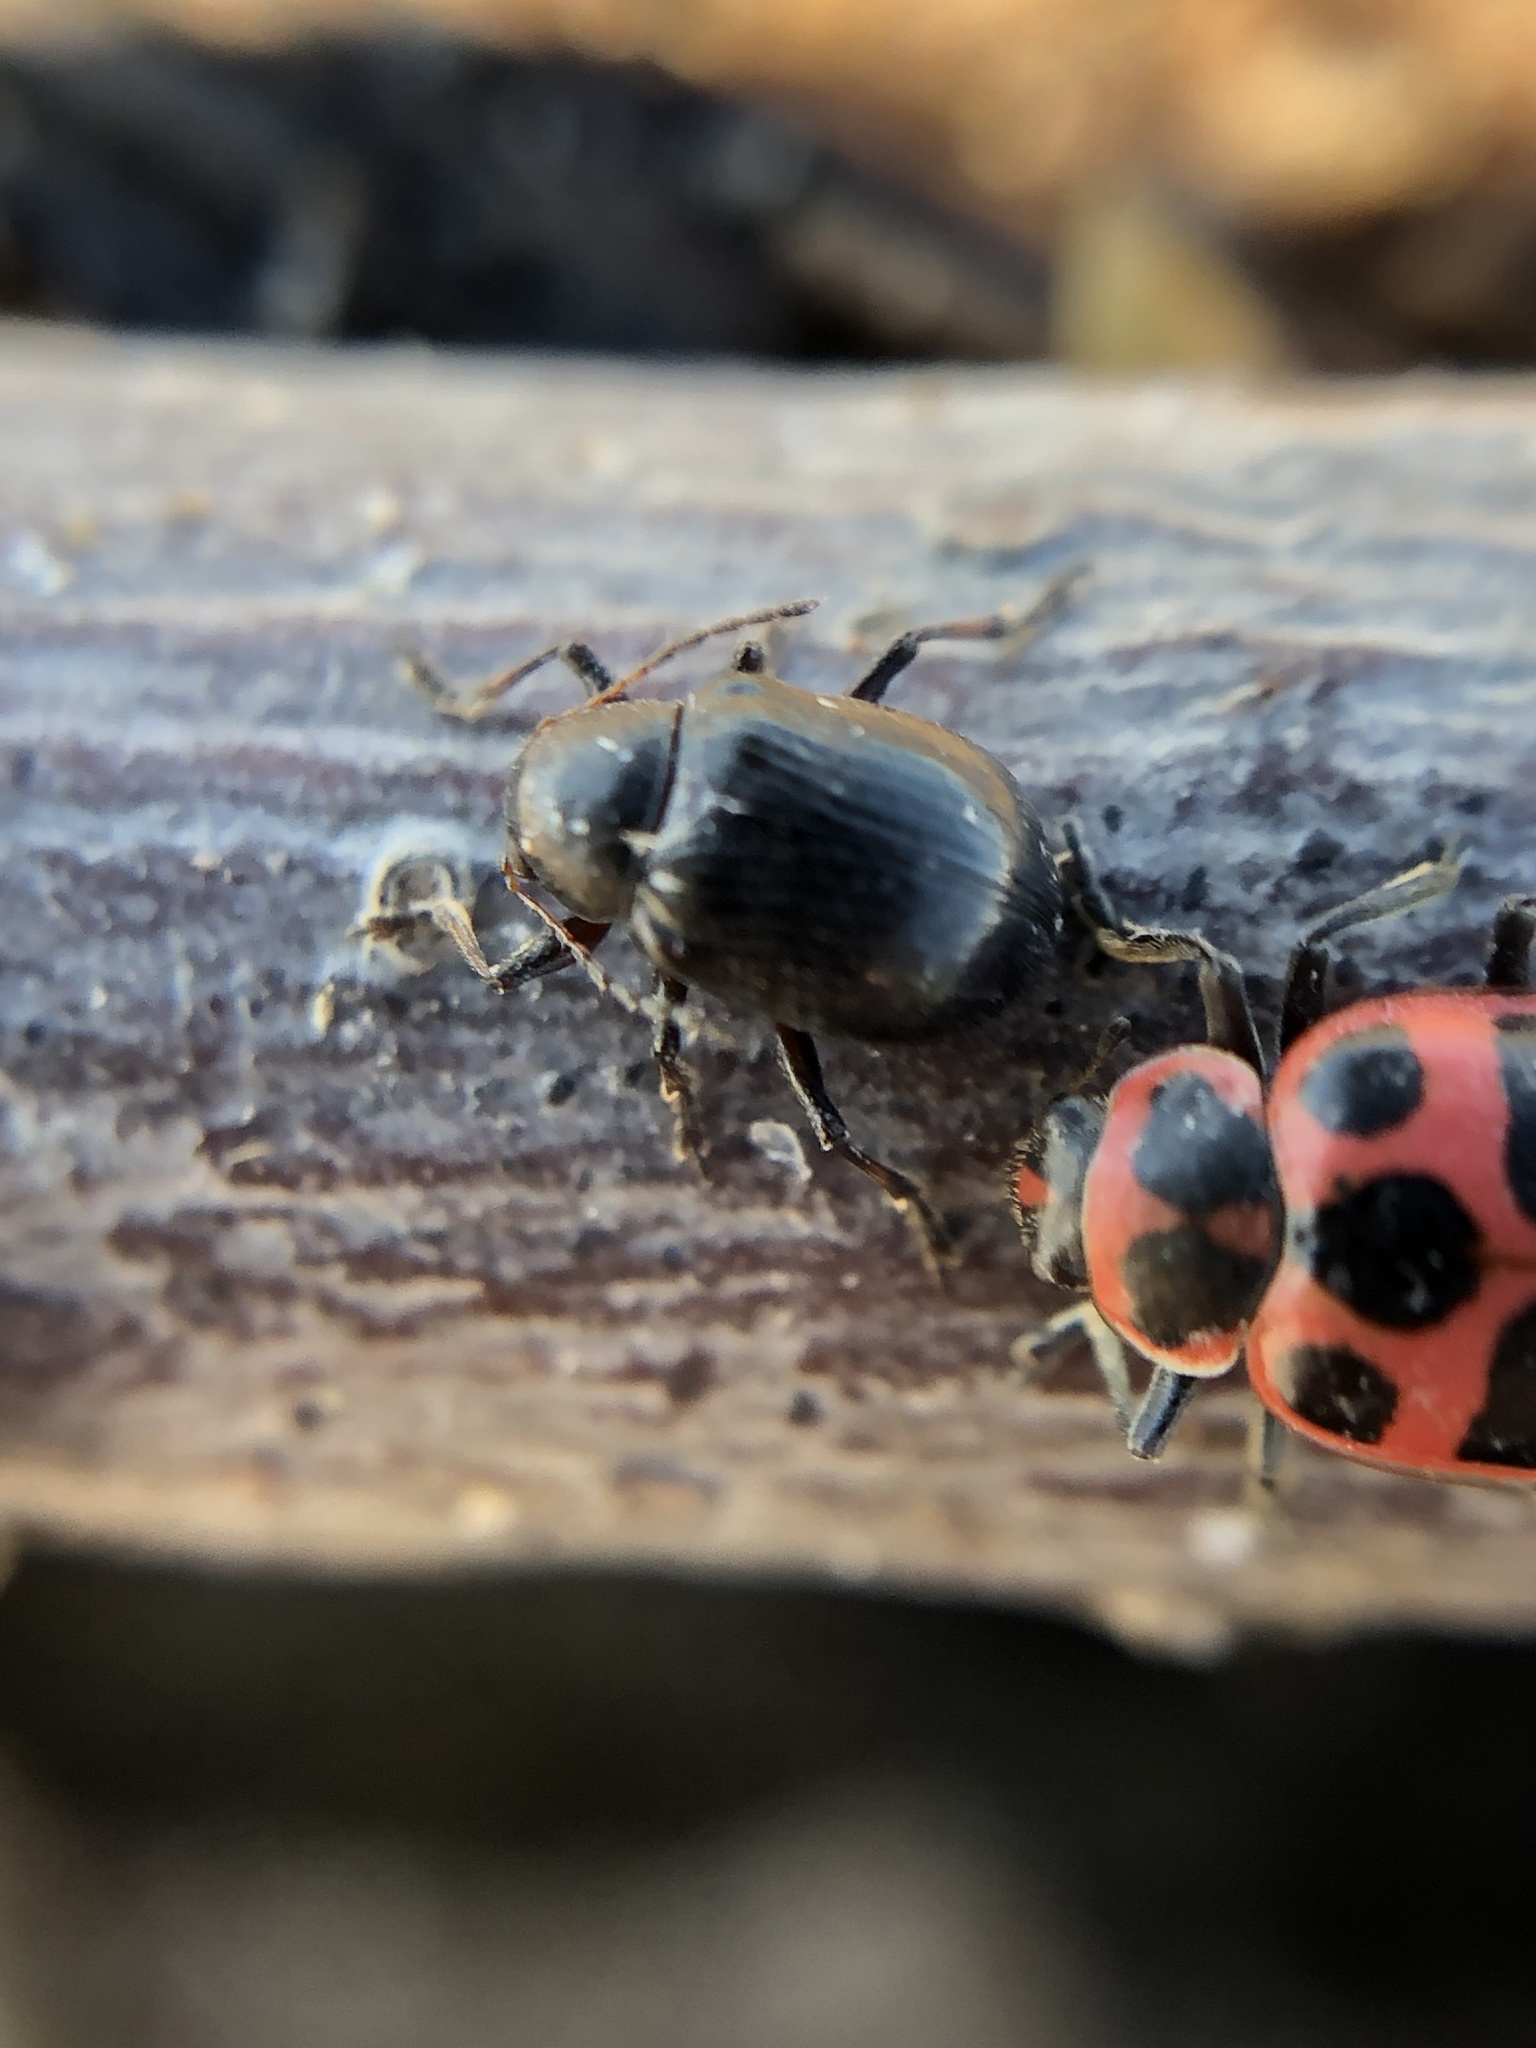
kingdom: Animalia
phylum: Arthropoda
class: Insecta
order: Coleoptera
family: Coccinellidae
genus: Coleomegilla
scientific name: Coleomegilla maculata
